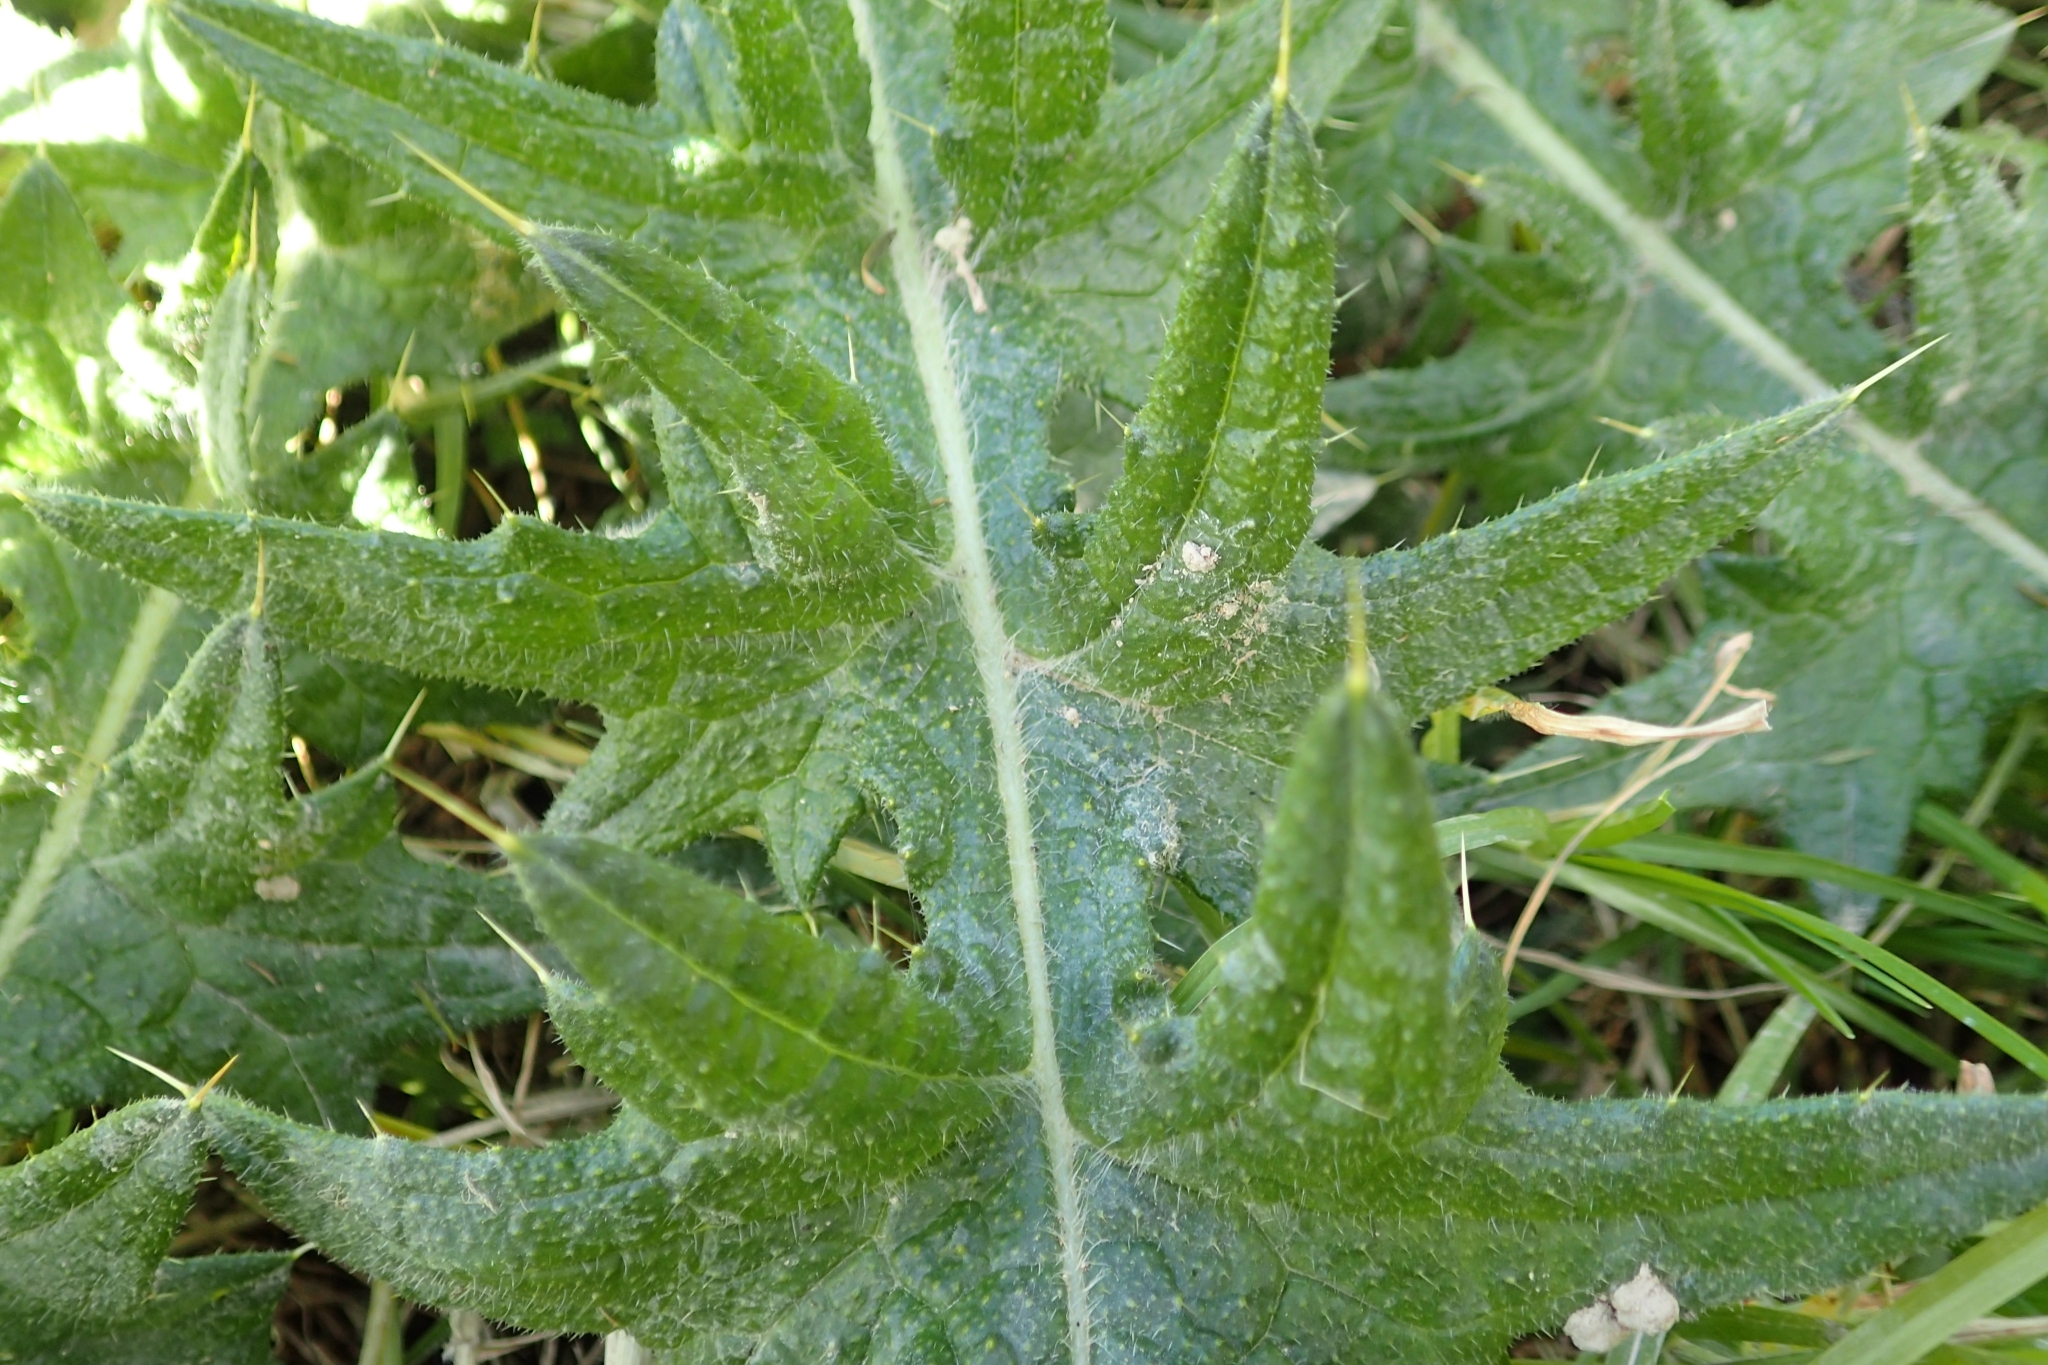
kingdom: Plantae
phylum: Tracheophyta
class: Magnoliopsida
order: Asterales
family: Asteraceae
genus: Cirsium
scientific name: Cirsium vulgare
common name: Bull thistle
